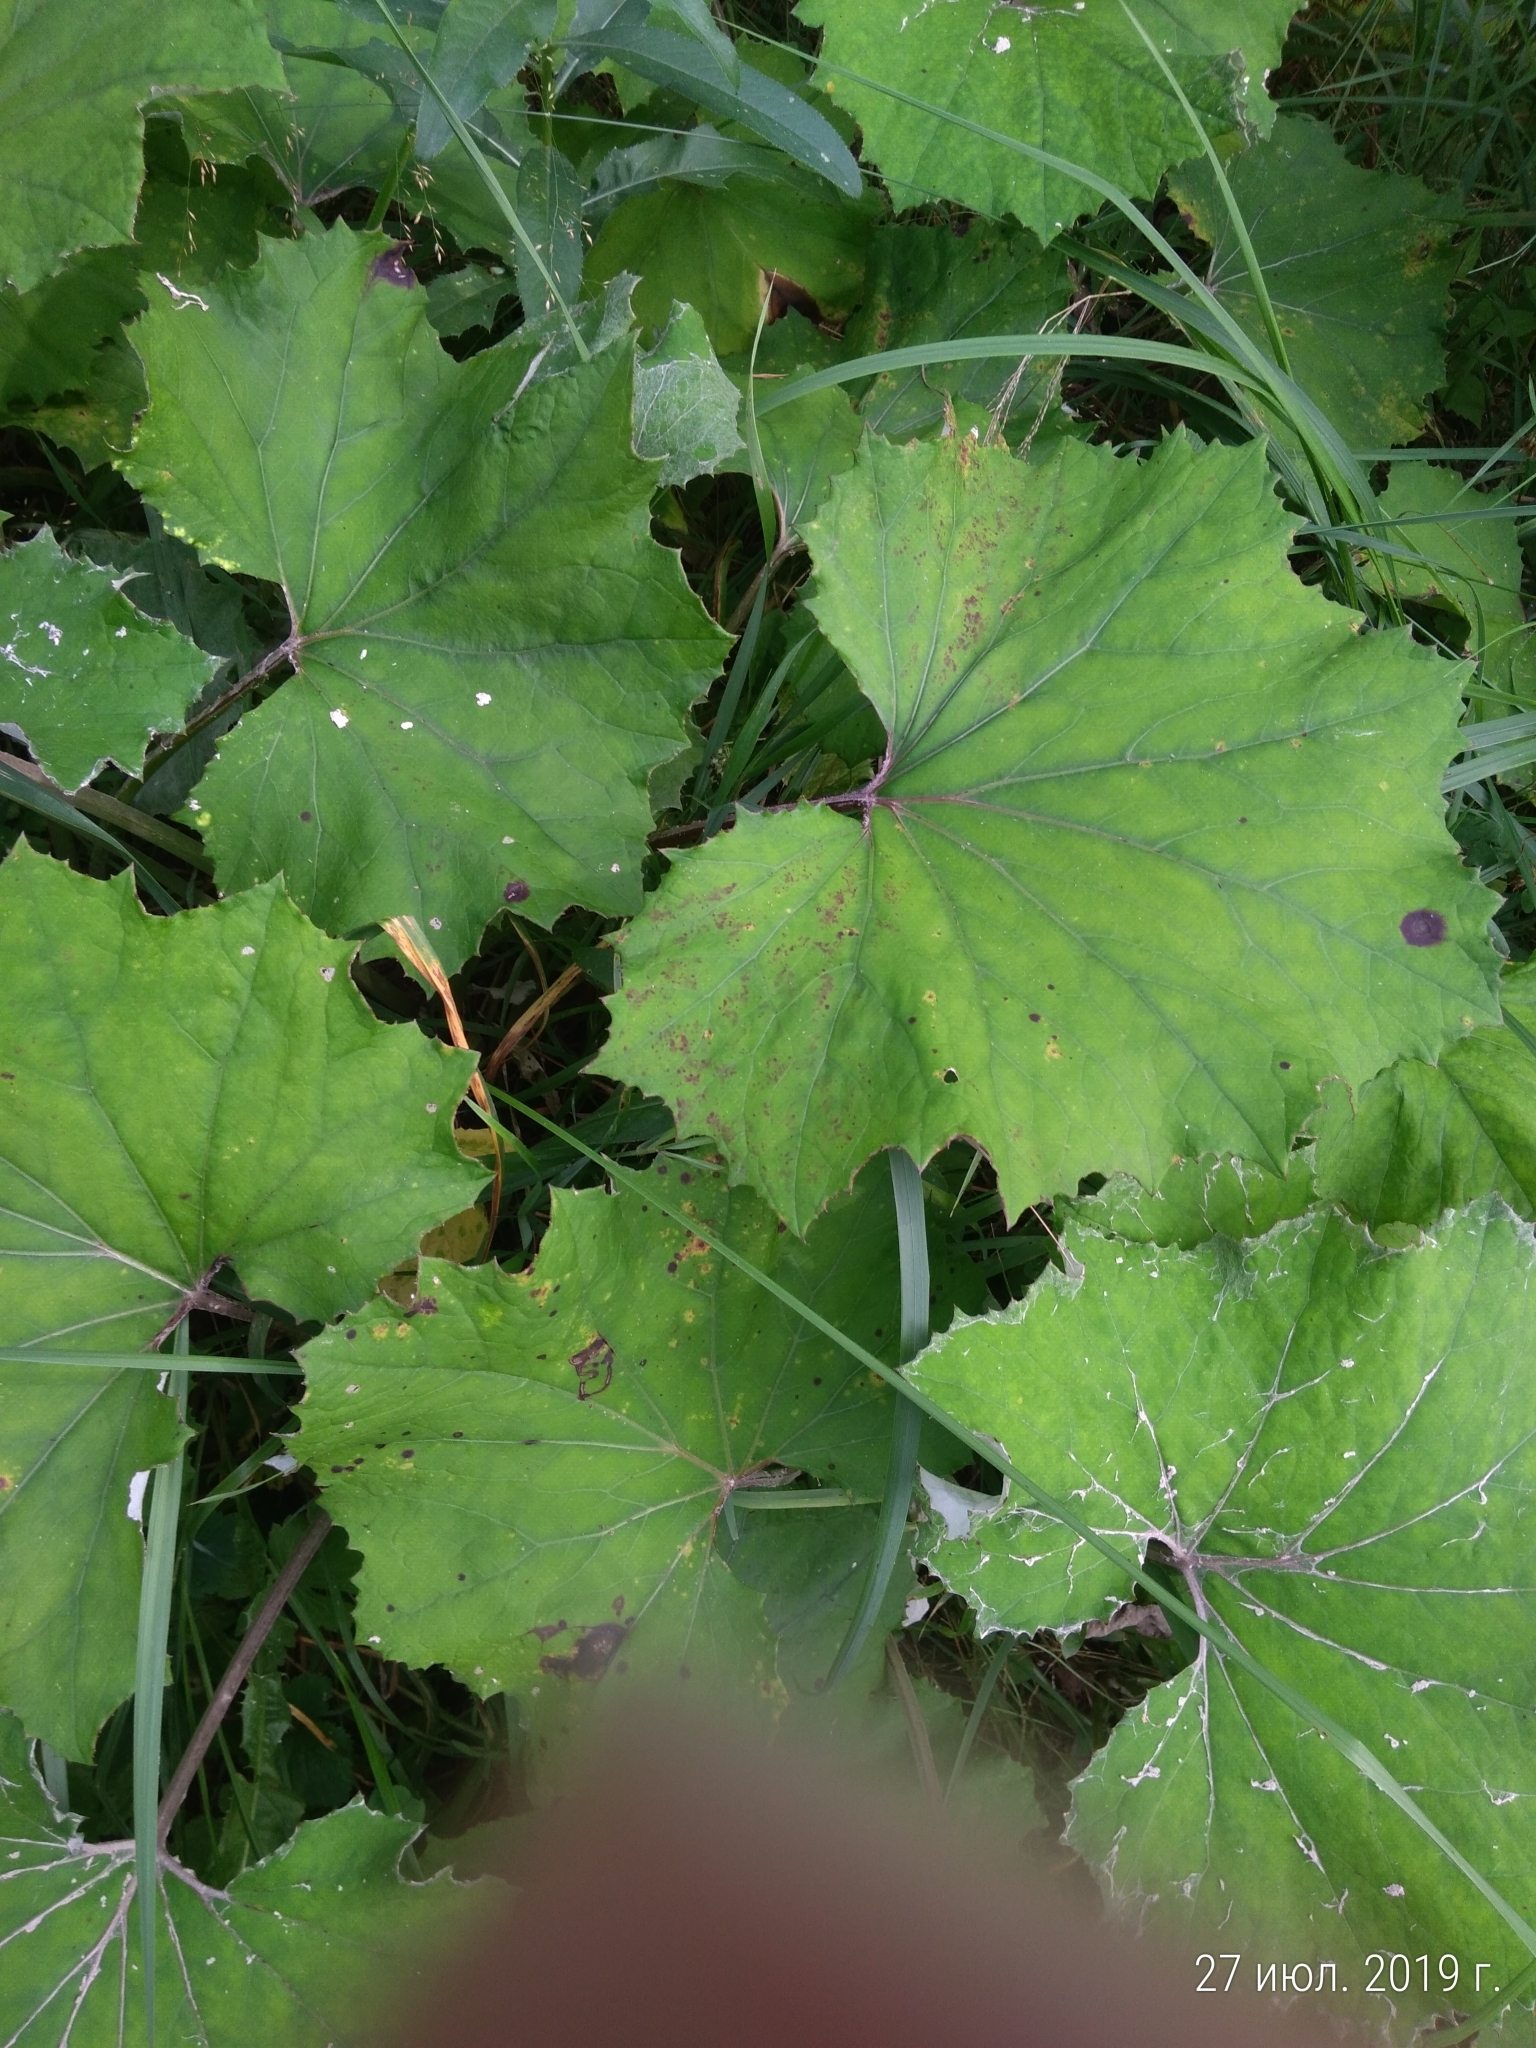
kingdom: Plantae
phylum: Tracheophyta
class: Magnoliopsida
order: Asterales
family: Asteraceae
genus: Tussilago
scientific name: Tussilago farfara
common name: Coltsfoot
